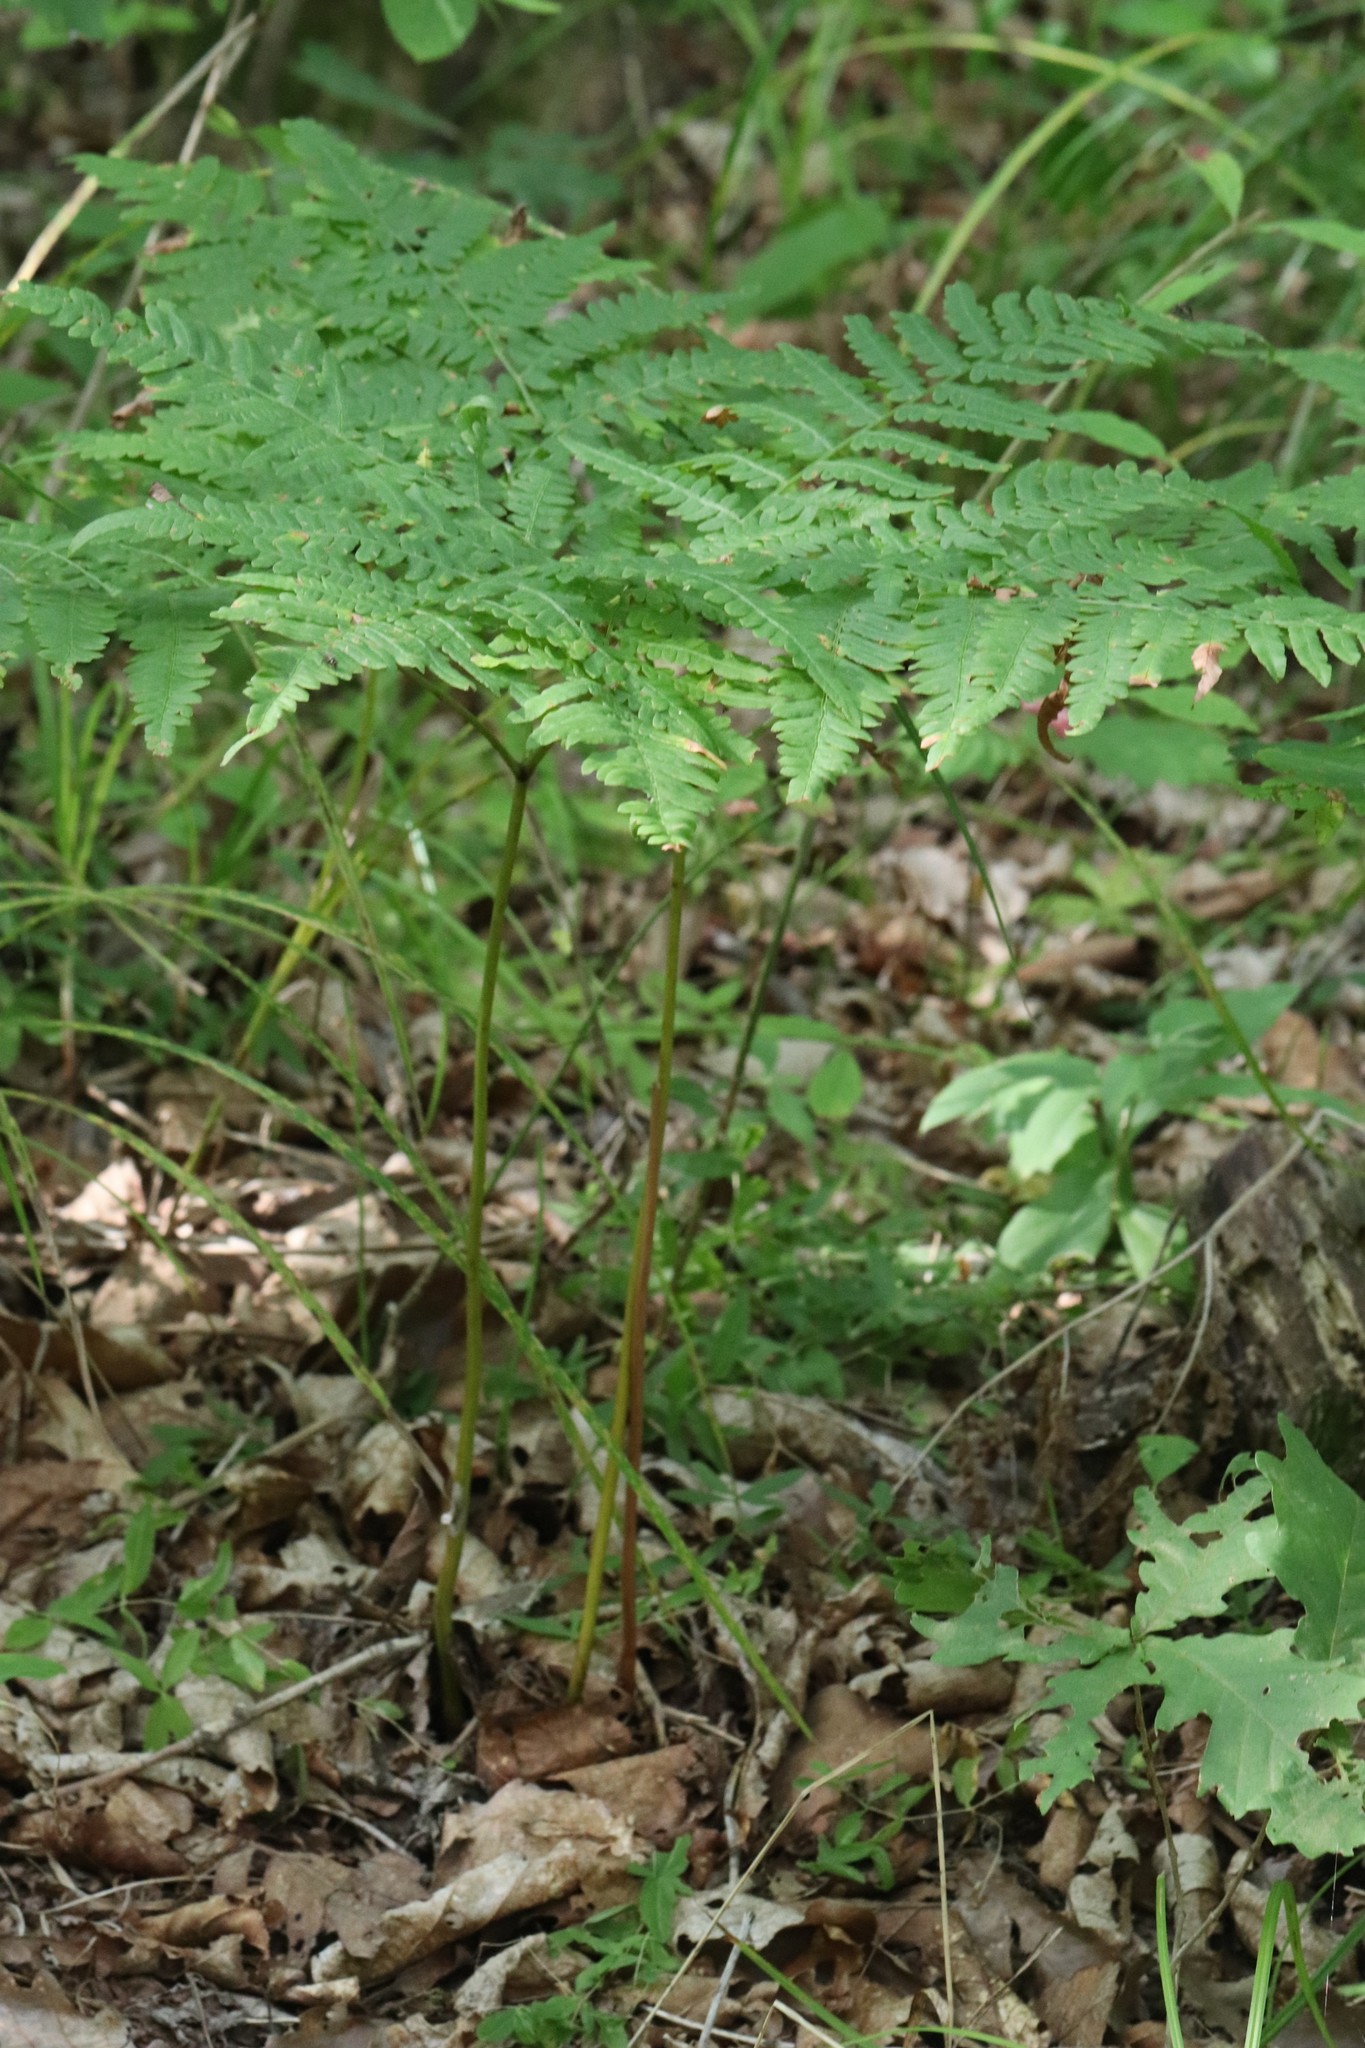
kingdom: Plantae
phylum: Tracheophyta
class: Polypodiopsida
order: Polypodiales
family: Dennstaedtiaceae
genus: Pteridium
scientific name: Pteridium aquilinum
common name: Bracken
